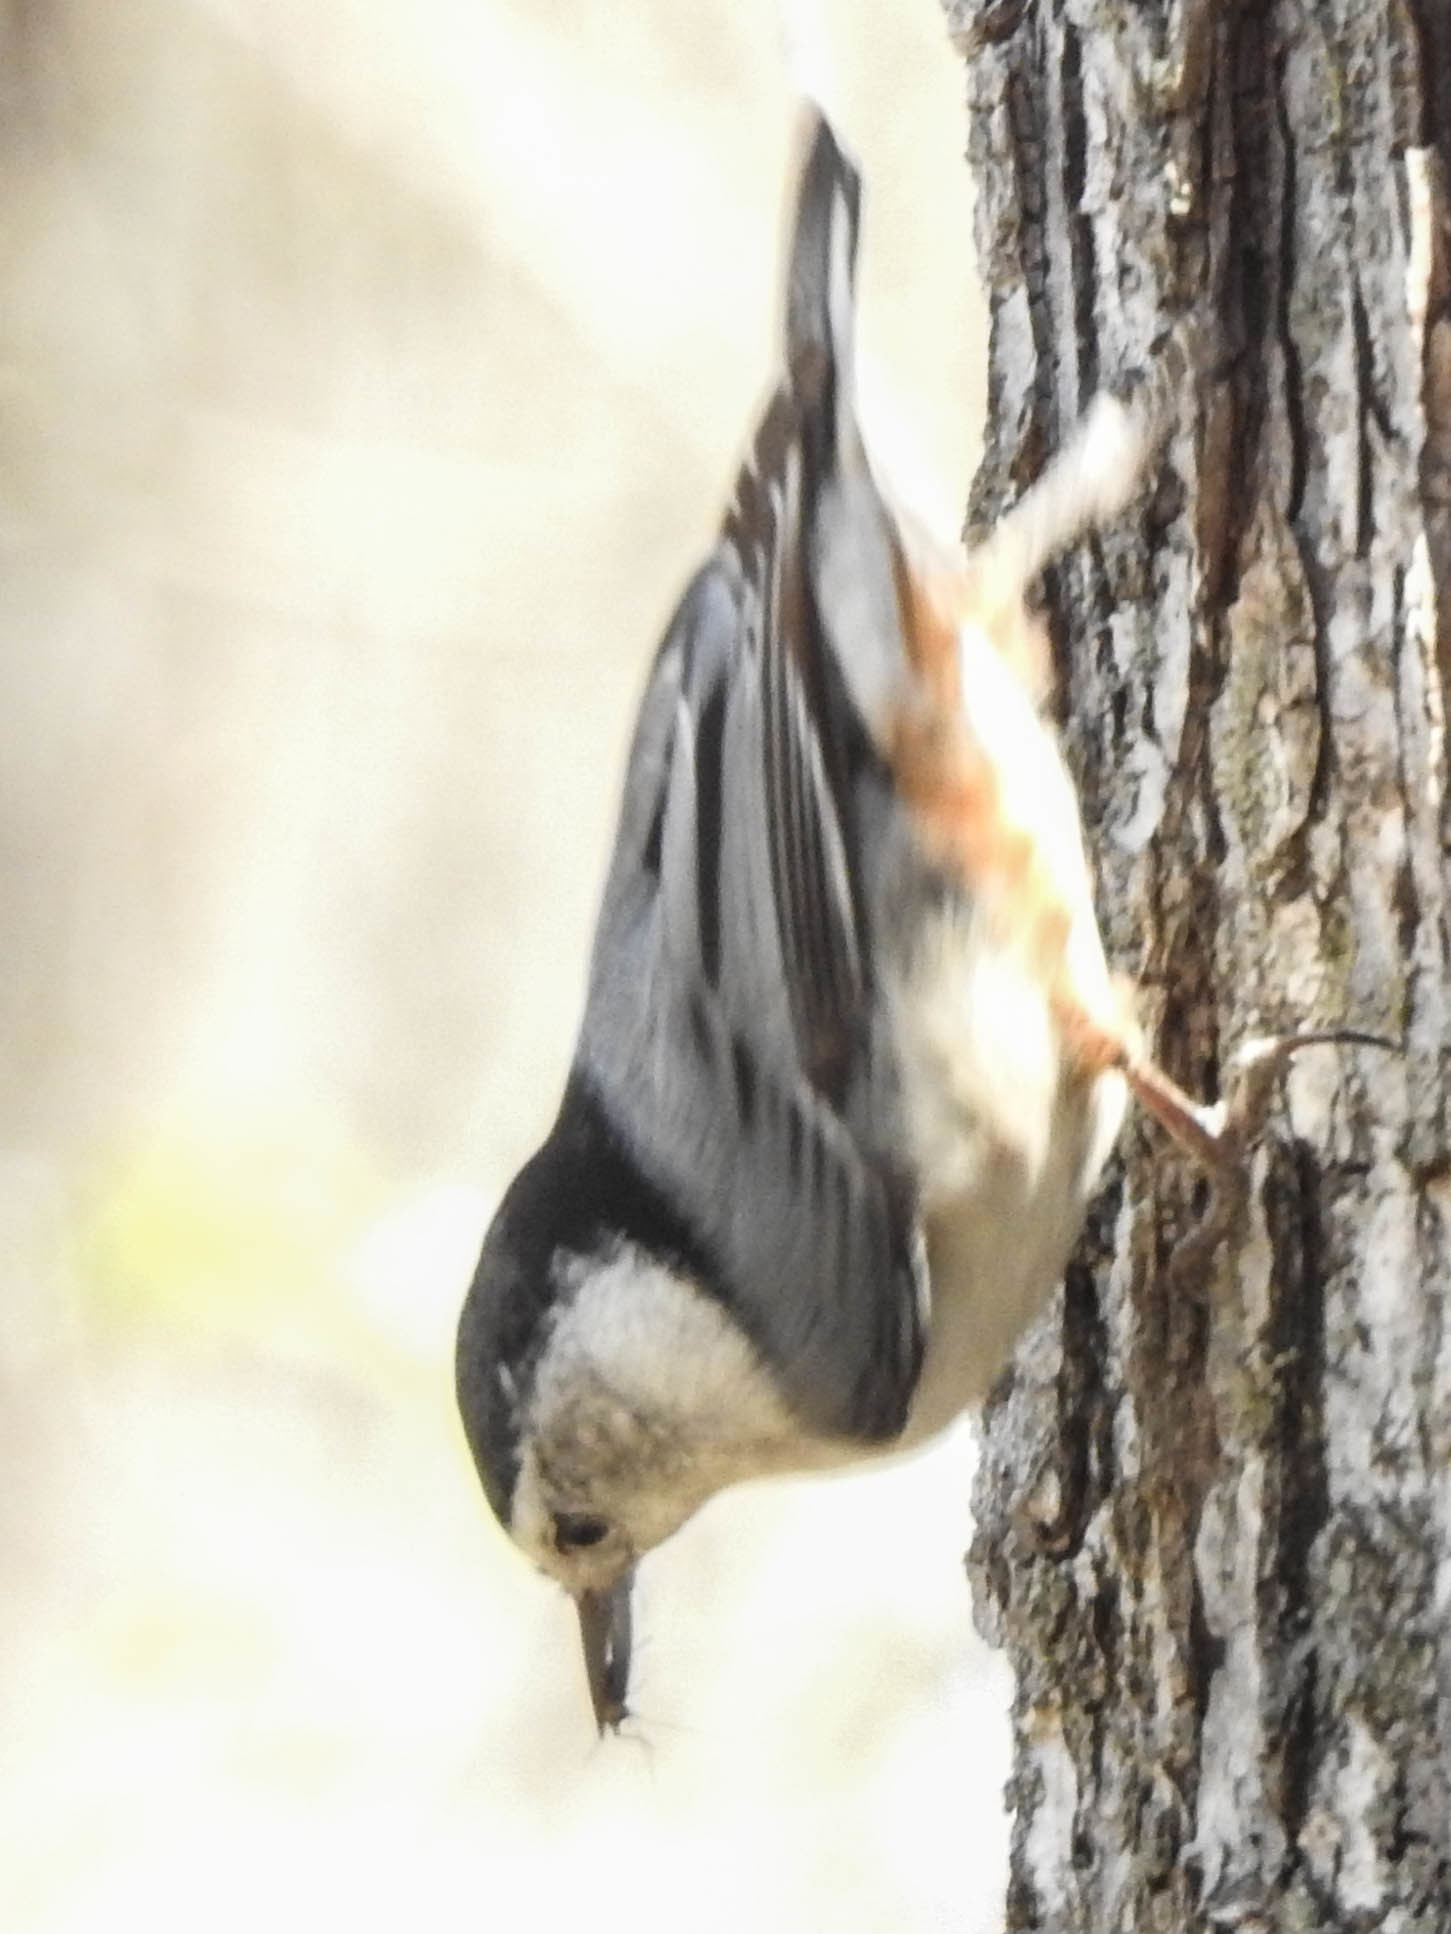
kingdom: Animalia
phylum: Chordata
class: Aves
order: Passeriformes
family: Sittidae
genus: Sitta
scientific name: Sitta carolinensis
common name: White-breasted nuthatch
